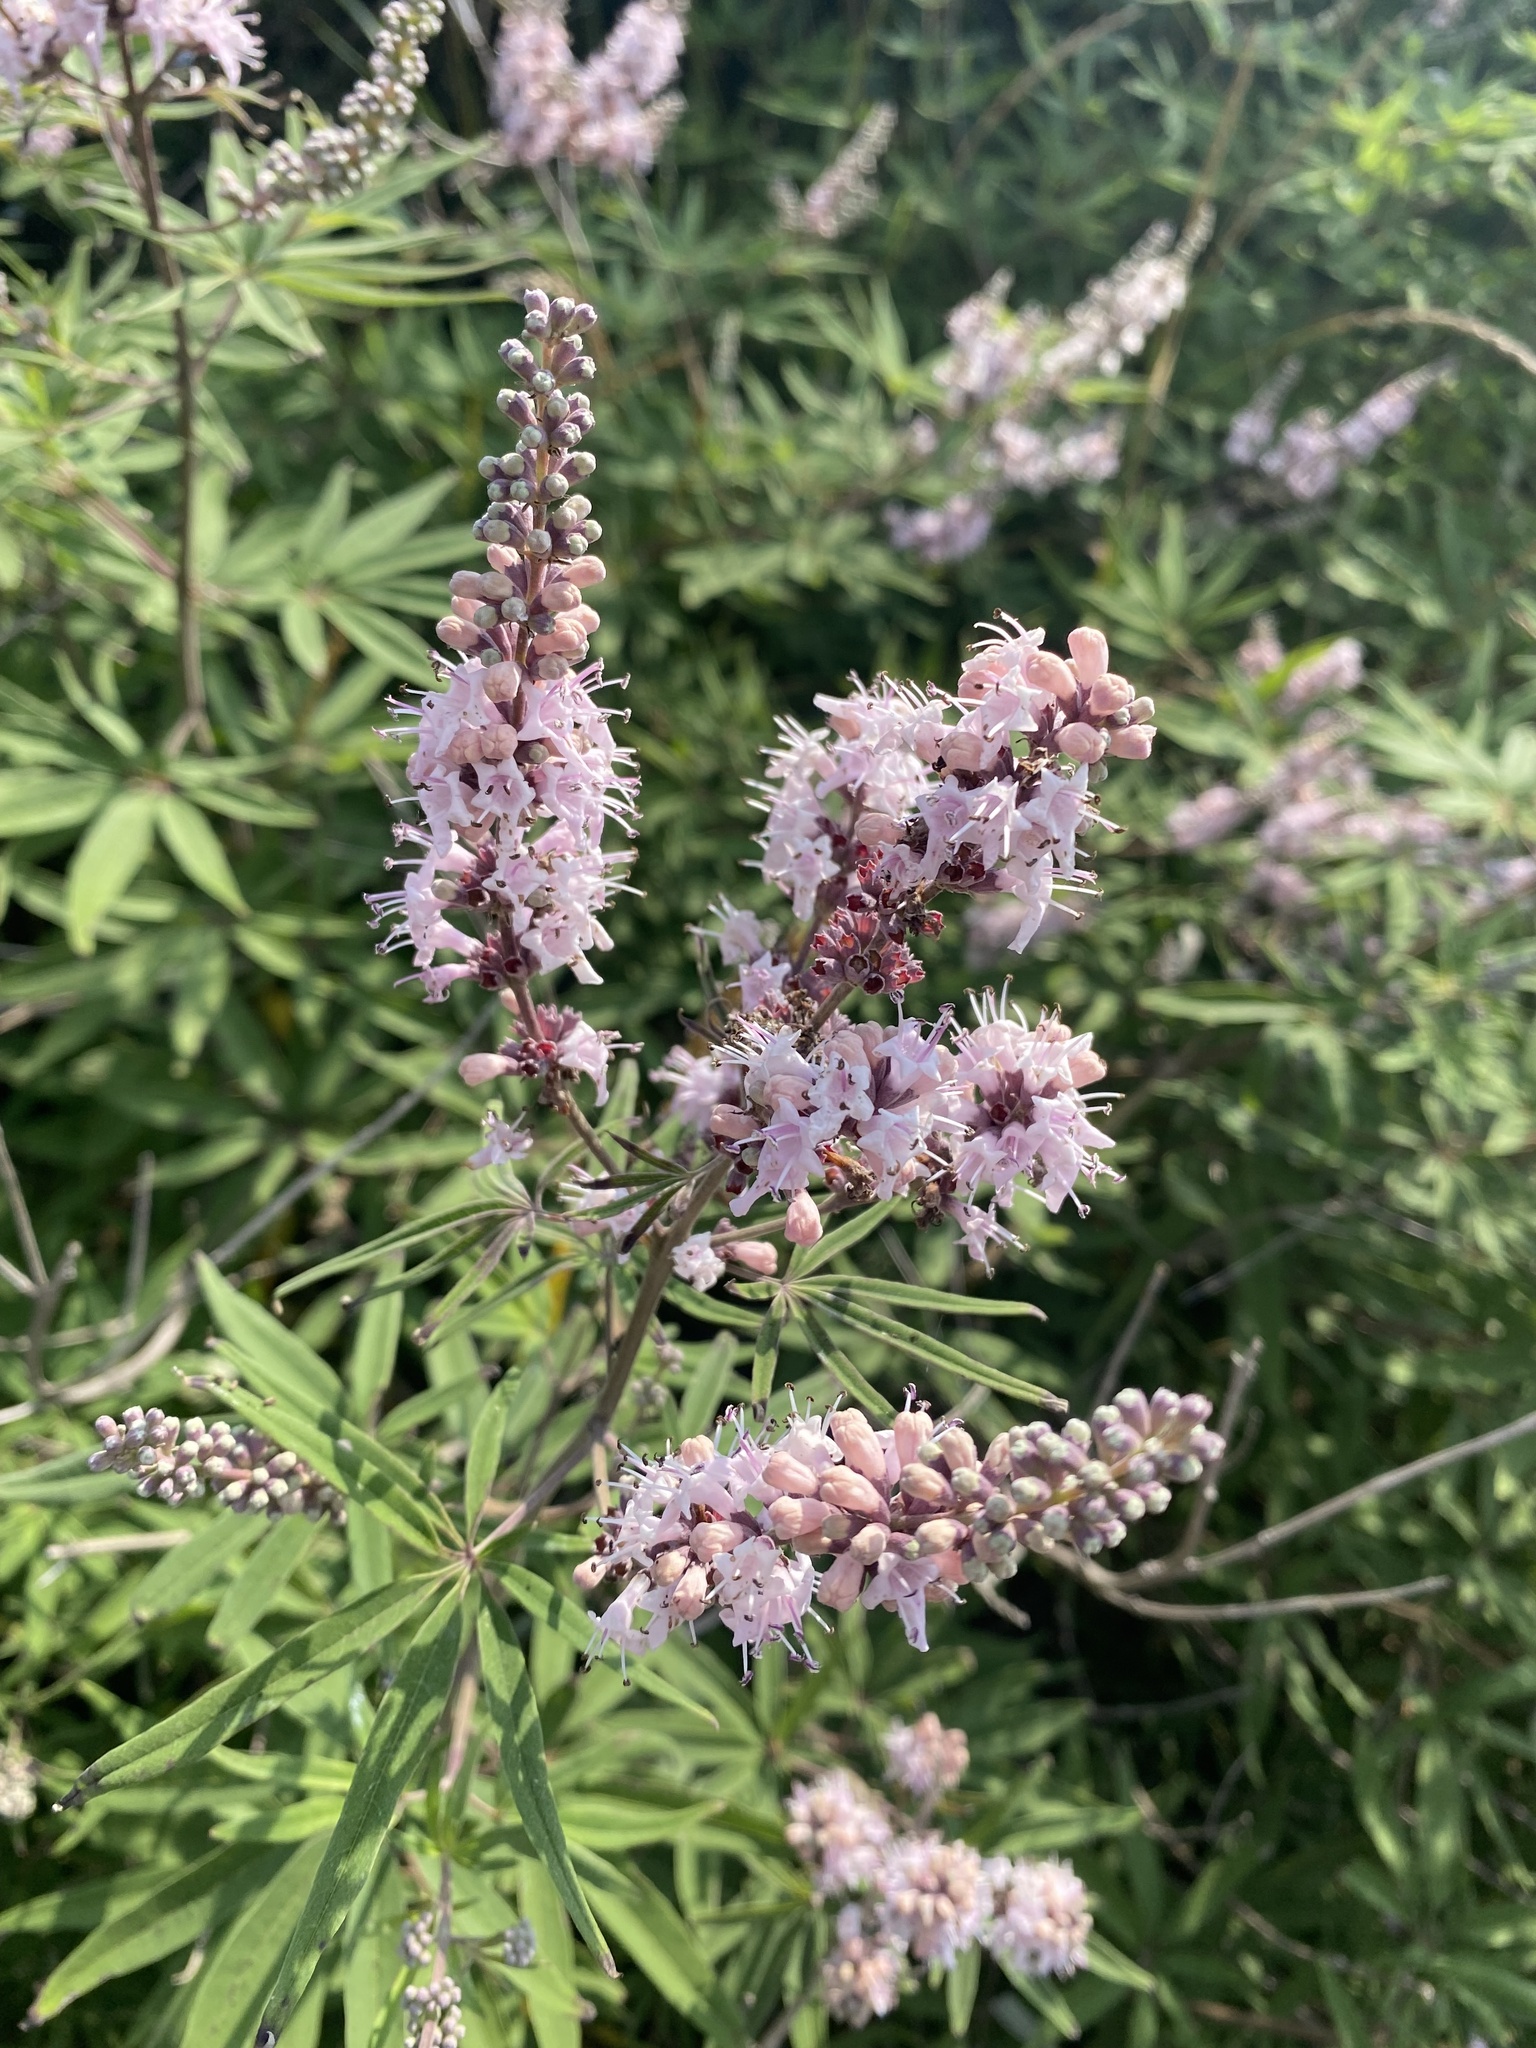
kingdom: Plantae
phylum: Tracheophyta
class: Magnoliopsida
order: Lamiales
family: Lamiaceae
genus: Vitex
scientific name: Vitex agnus-castus
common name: Chasteberry
